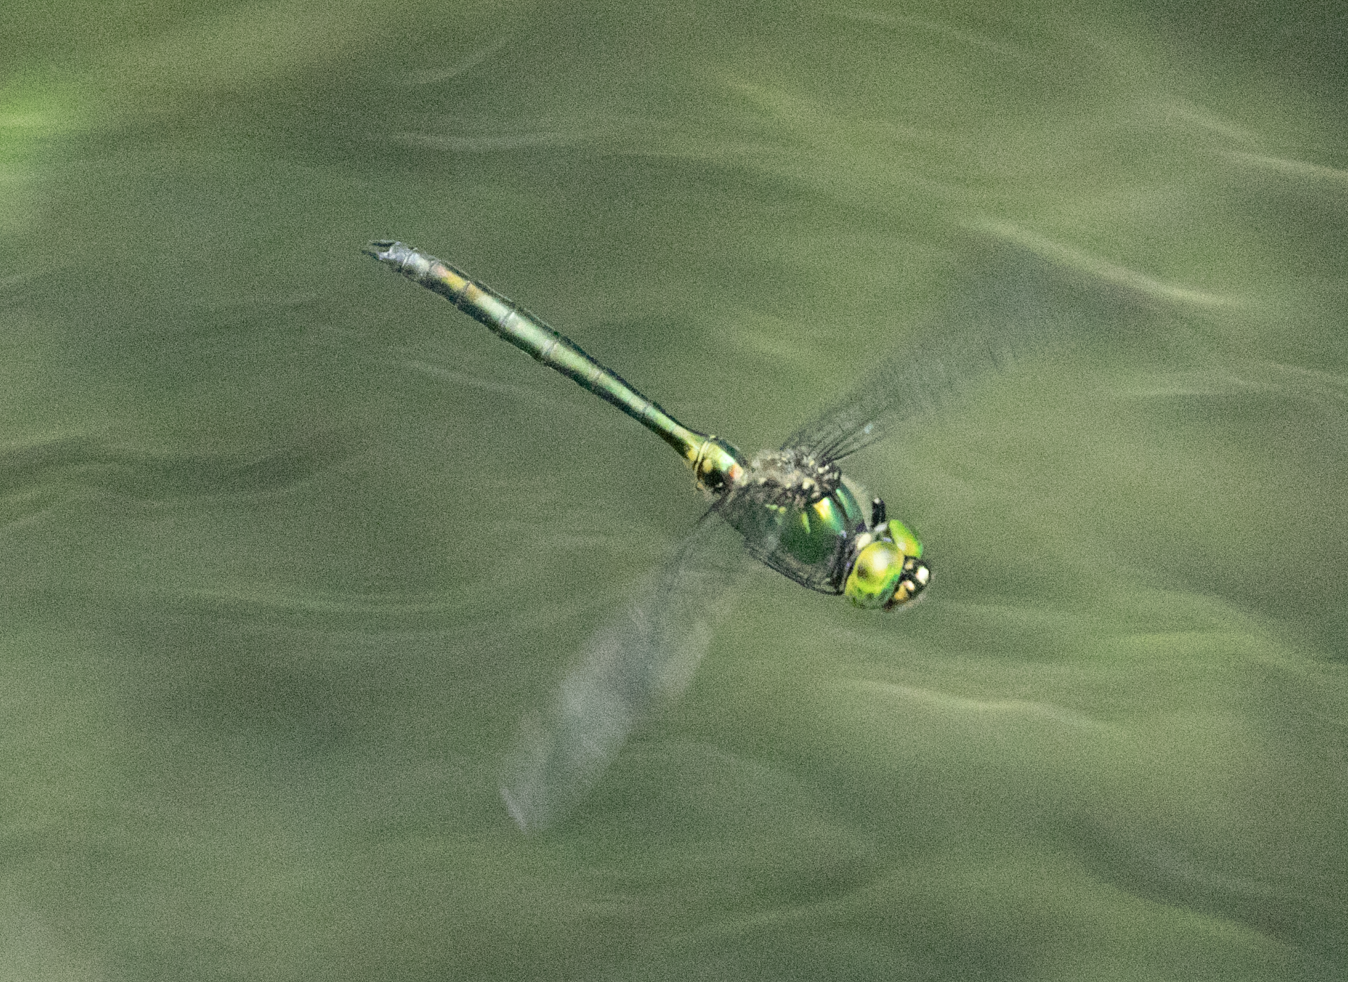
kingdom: Animalia
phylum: Arthropoda
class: Insecta
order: Odonata
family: Corduliidae
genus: Somatochlora
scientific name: Somatochlora metallica
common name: Brilliant emerald
